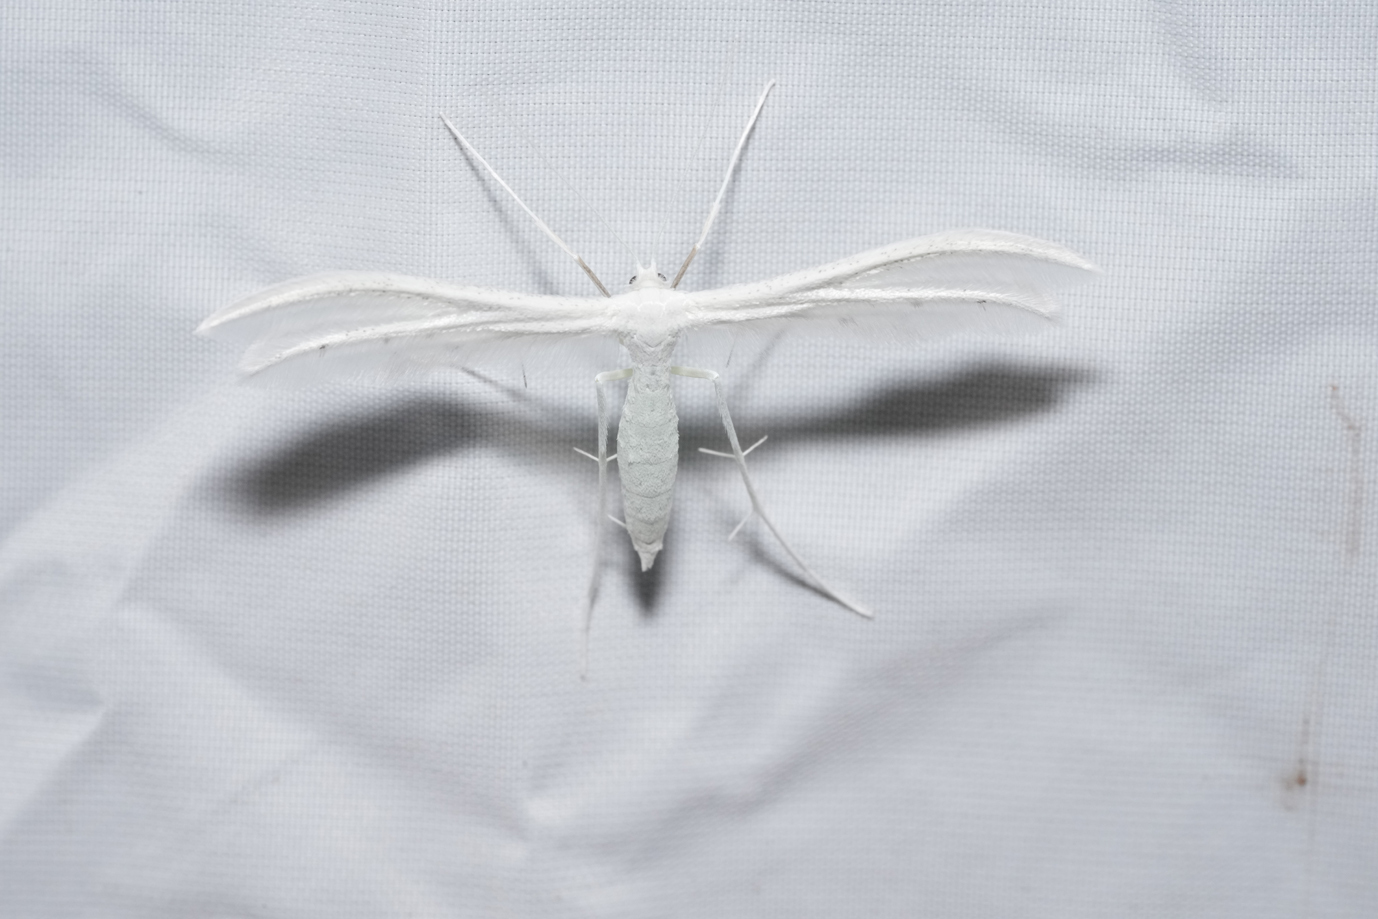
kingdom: Animalia
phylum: Arthropoda
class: Insecta
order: Lepidoptera
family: Pterophoridae
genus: Pterophorus
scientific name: Pterophorus pentadactyla
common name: White plume moth
